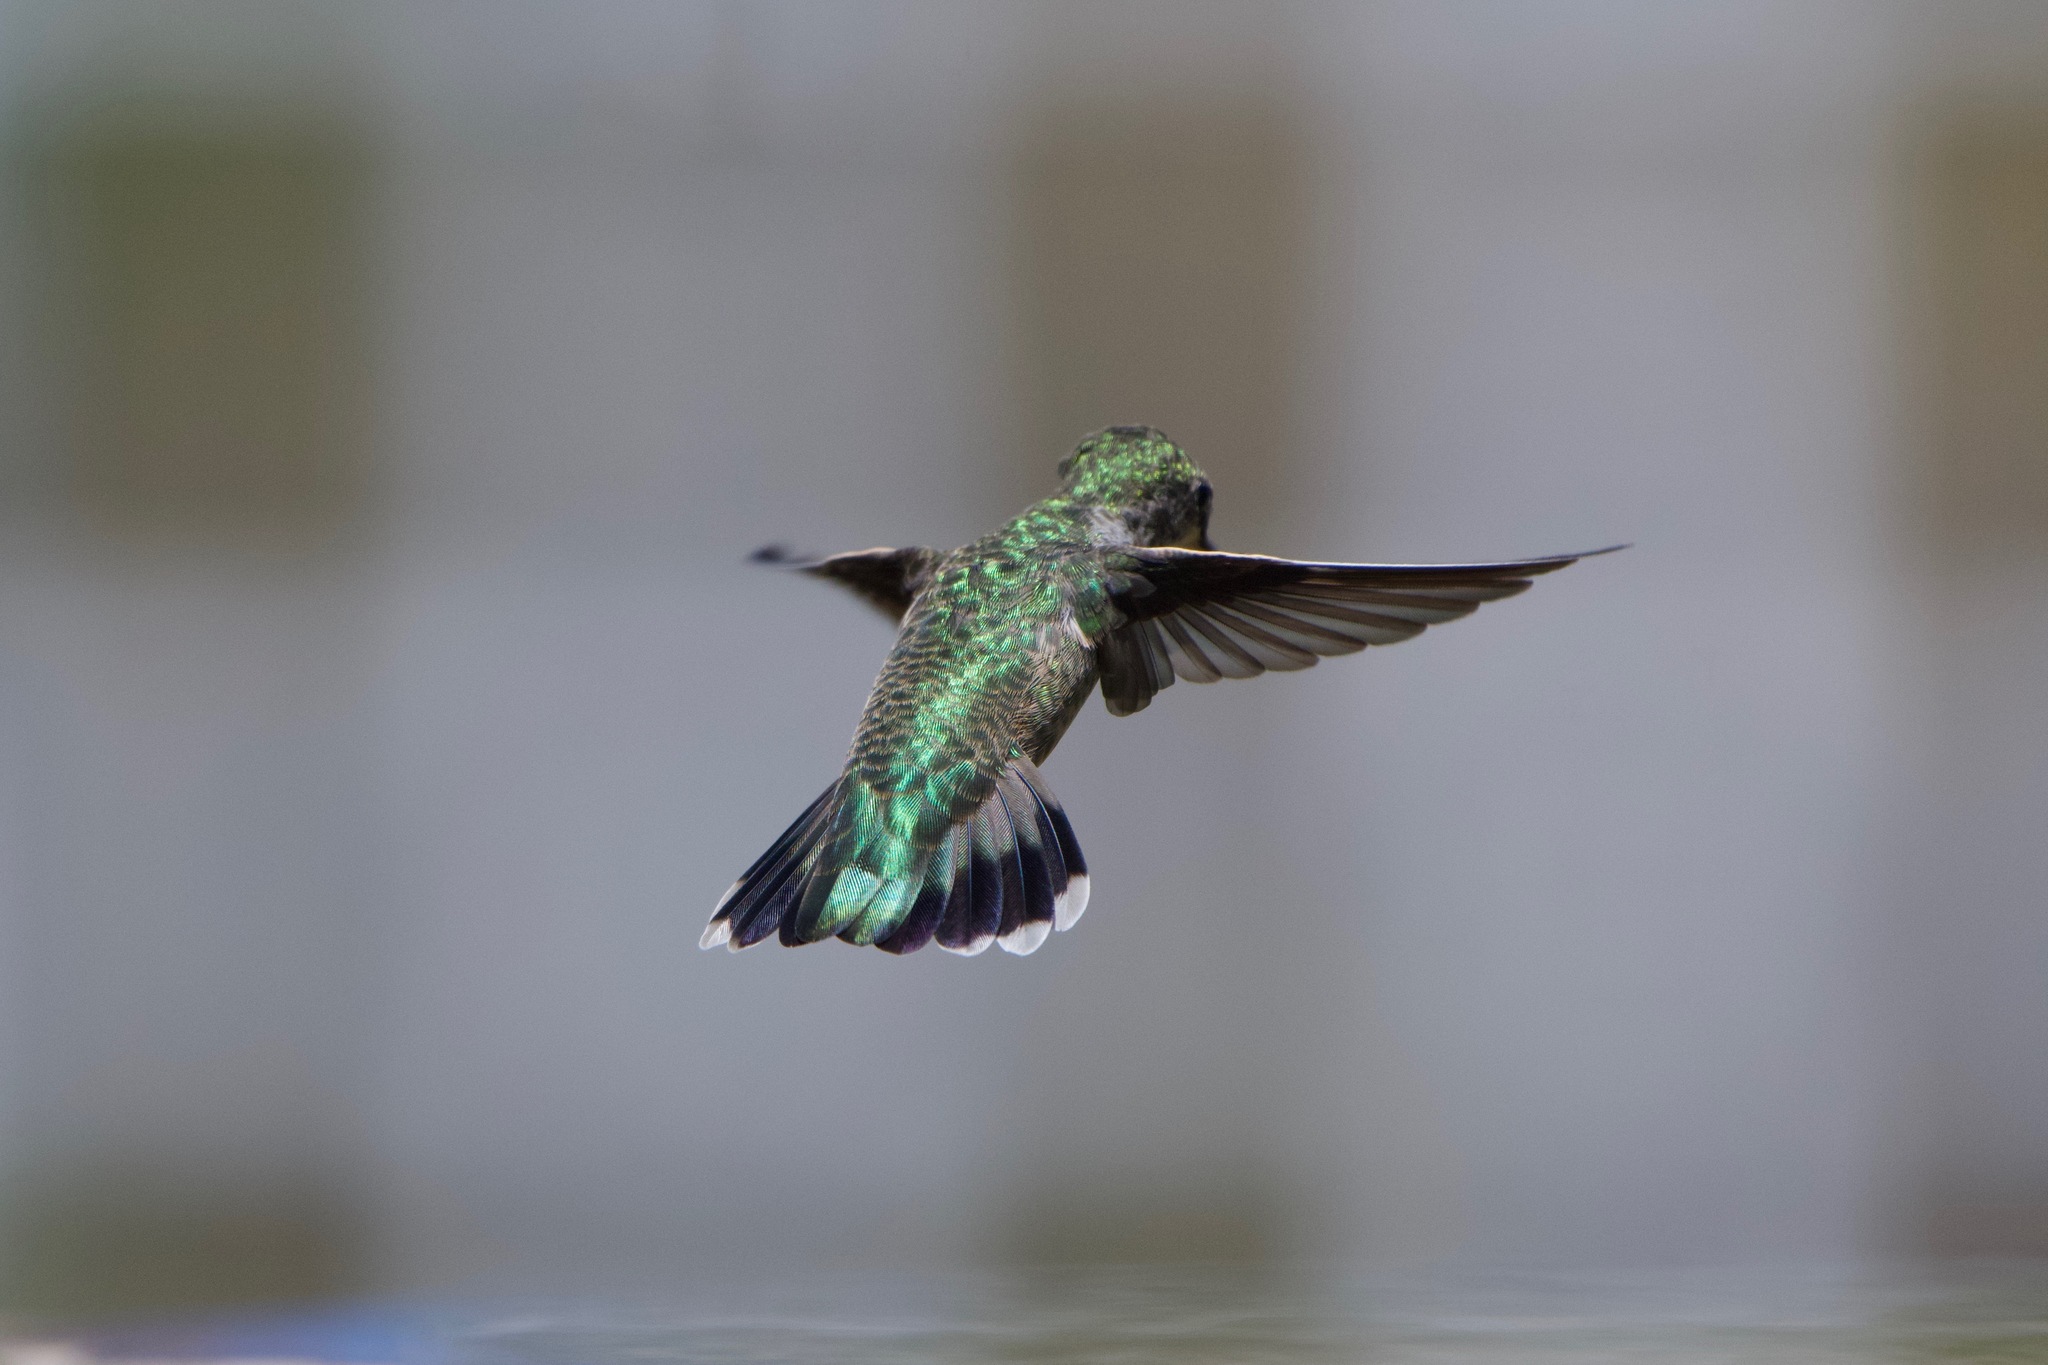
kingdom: Animalia
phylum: Chordata
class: Aves
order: Apodiformes
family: Trochilidae
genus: Calypte
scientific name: Calypte anna
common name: Anna's hummingbird
